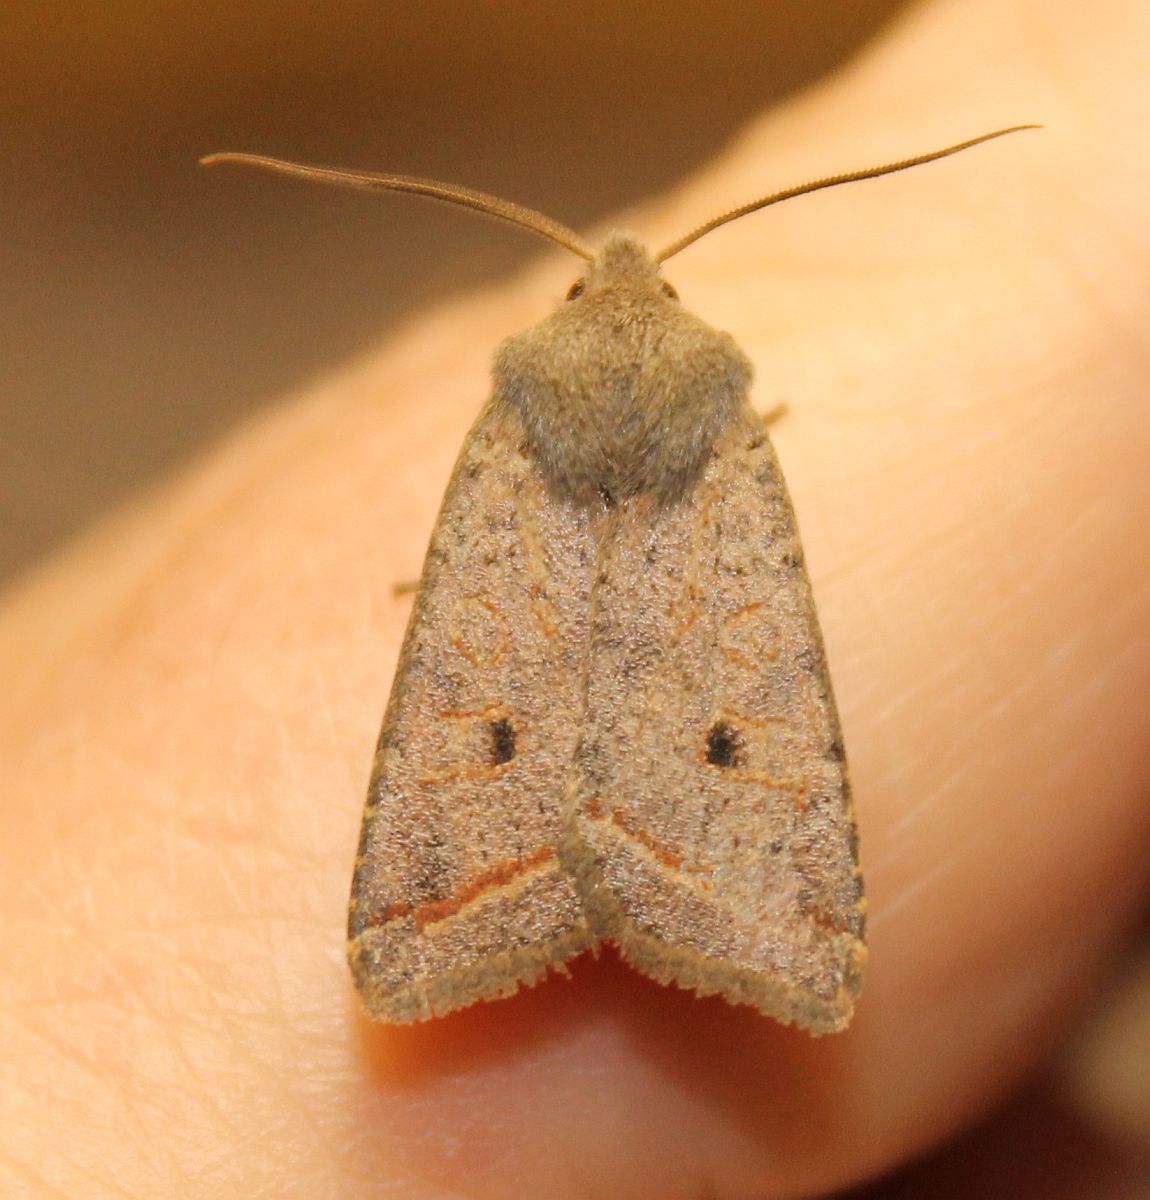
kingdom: Animalia
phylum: Arthropoda
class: Insecta
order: Lepidoptera
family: Noctuidae
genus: Agrochola
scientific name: Agrochola lota
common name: Red-line quaker
